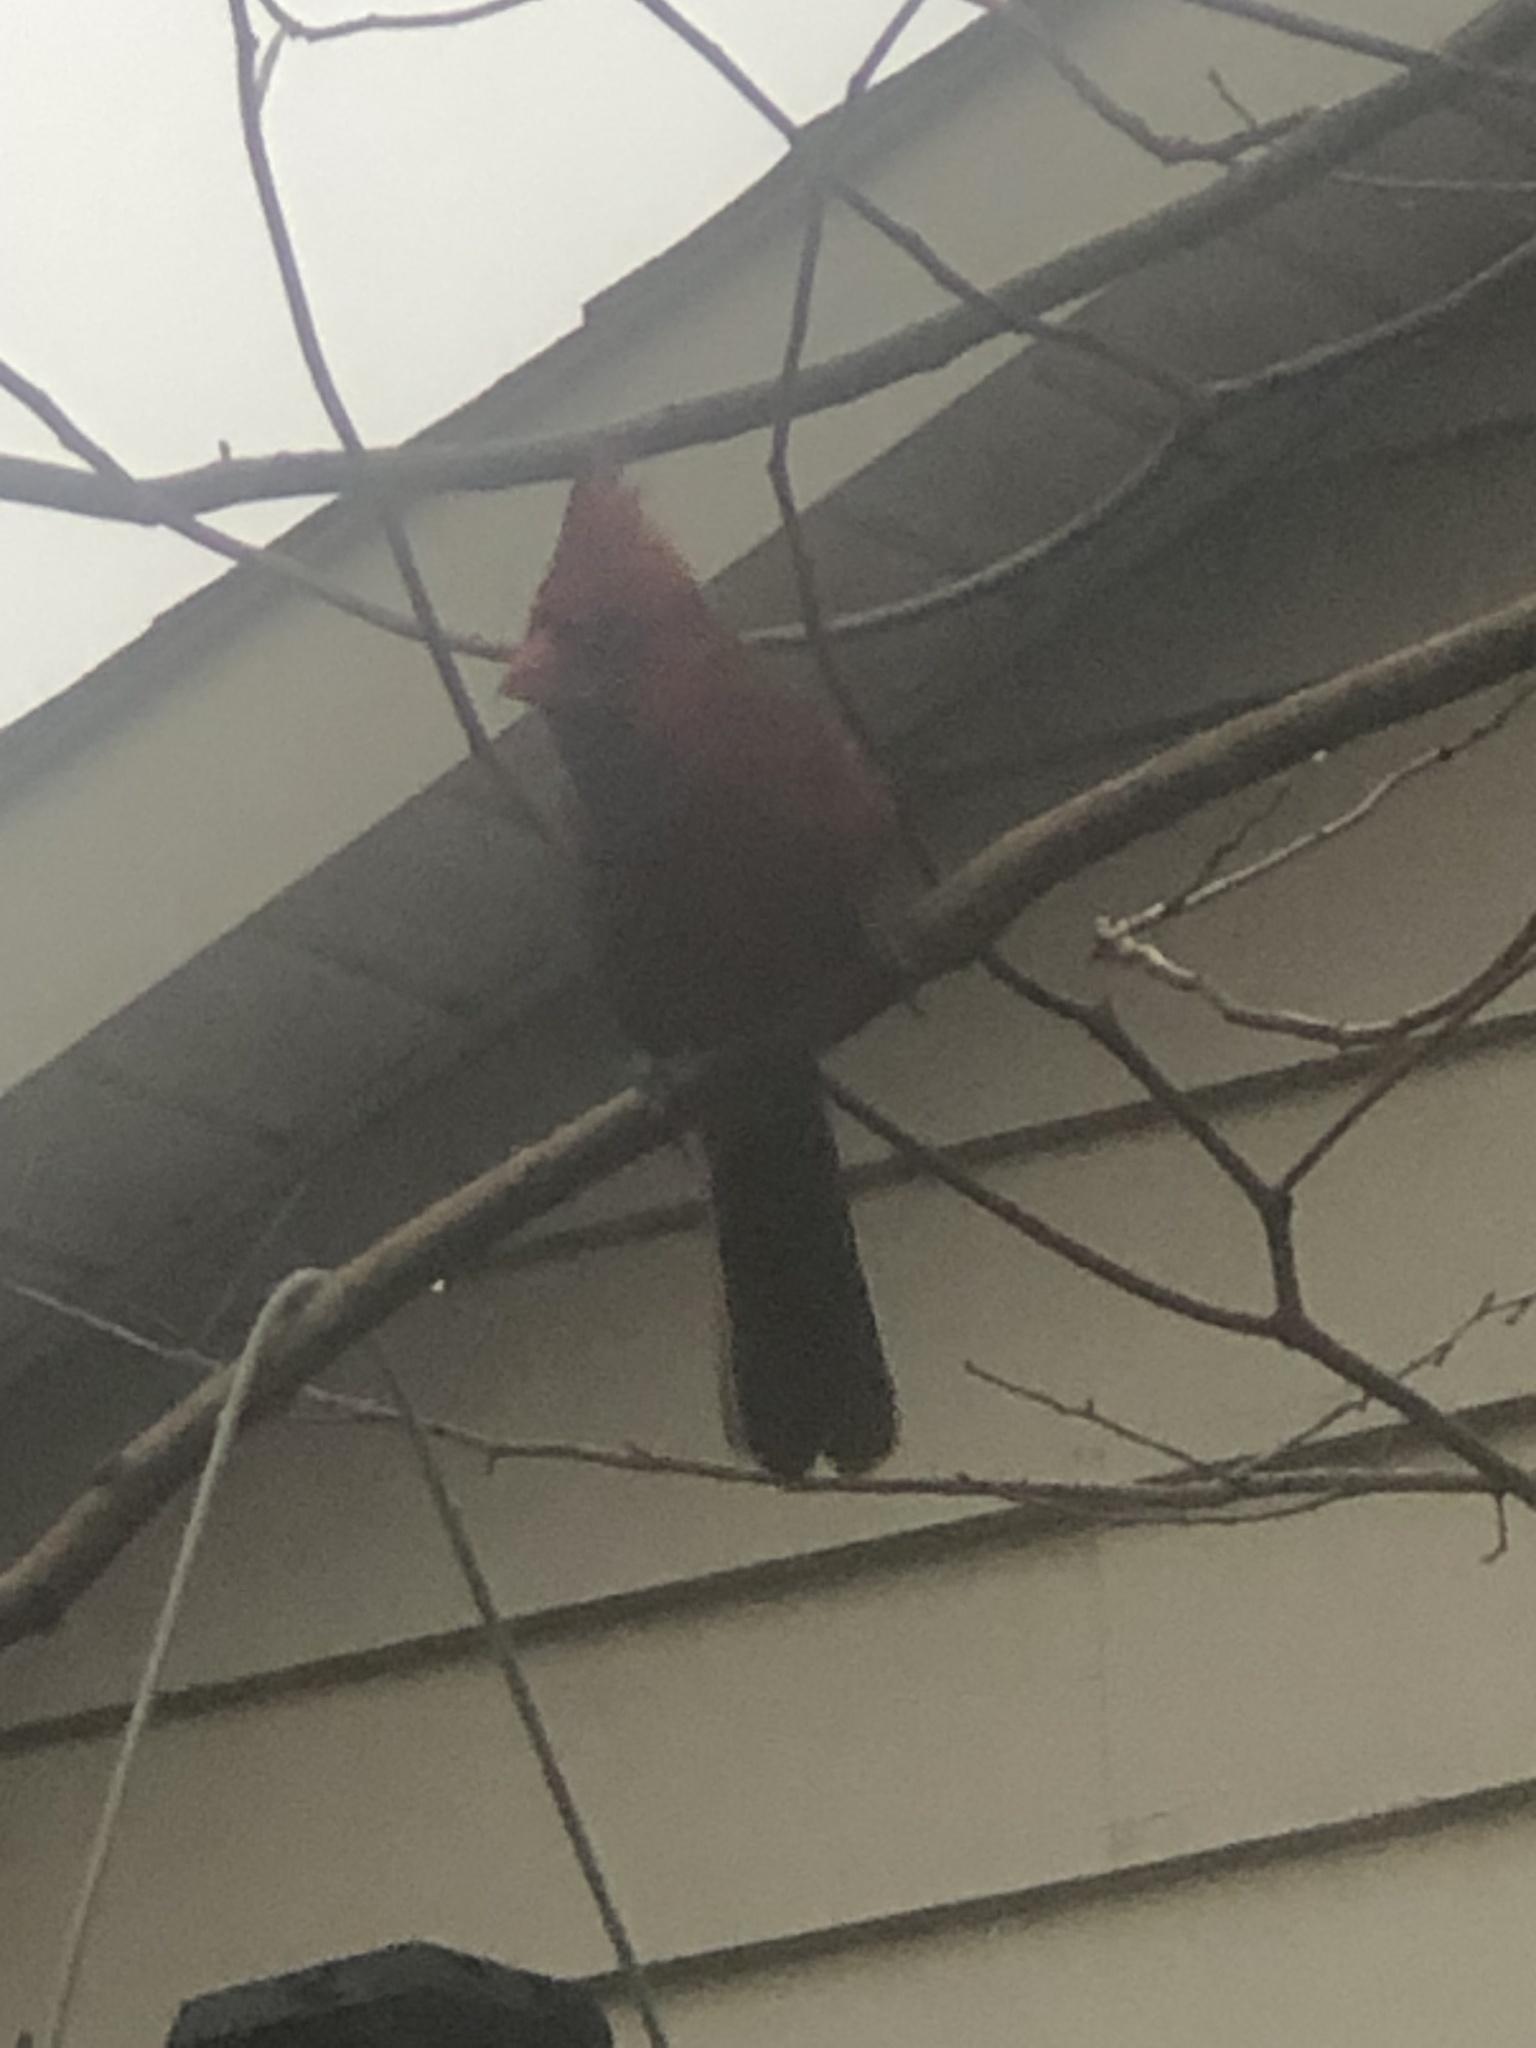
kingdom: Animalia
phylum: Chordata
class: Aves
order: Passeriformes
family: Cardinalidae
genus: Cardinalis
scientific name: Cardinalis cardinalis
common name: Northern cardinal
